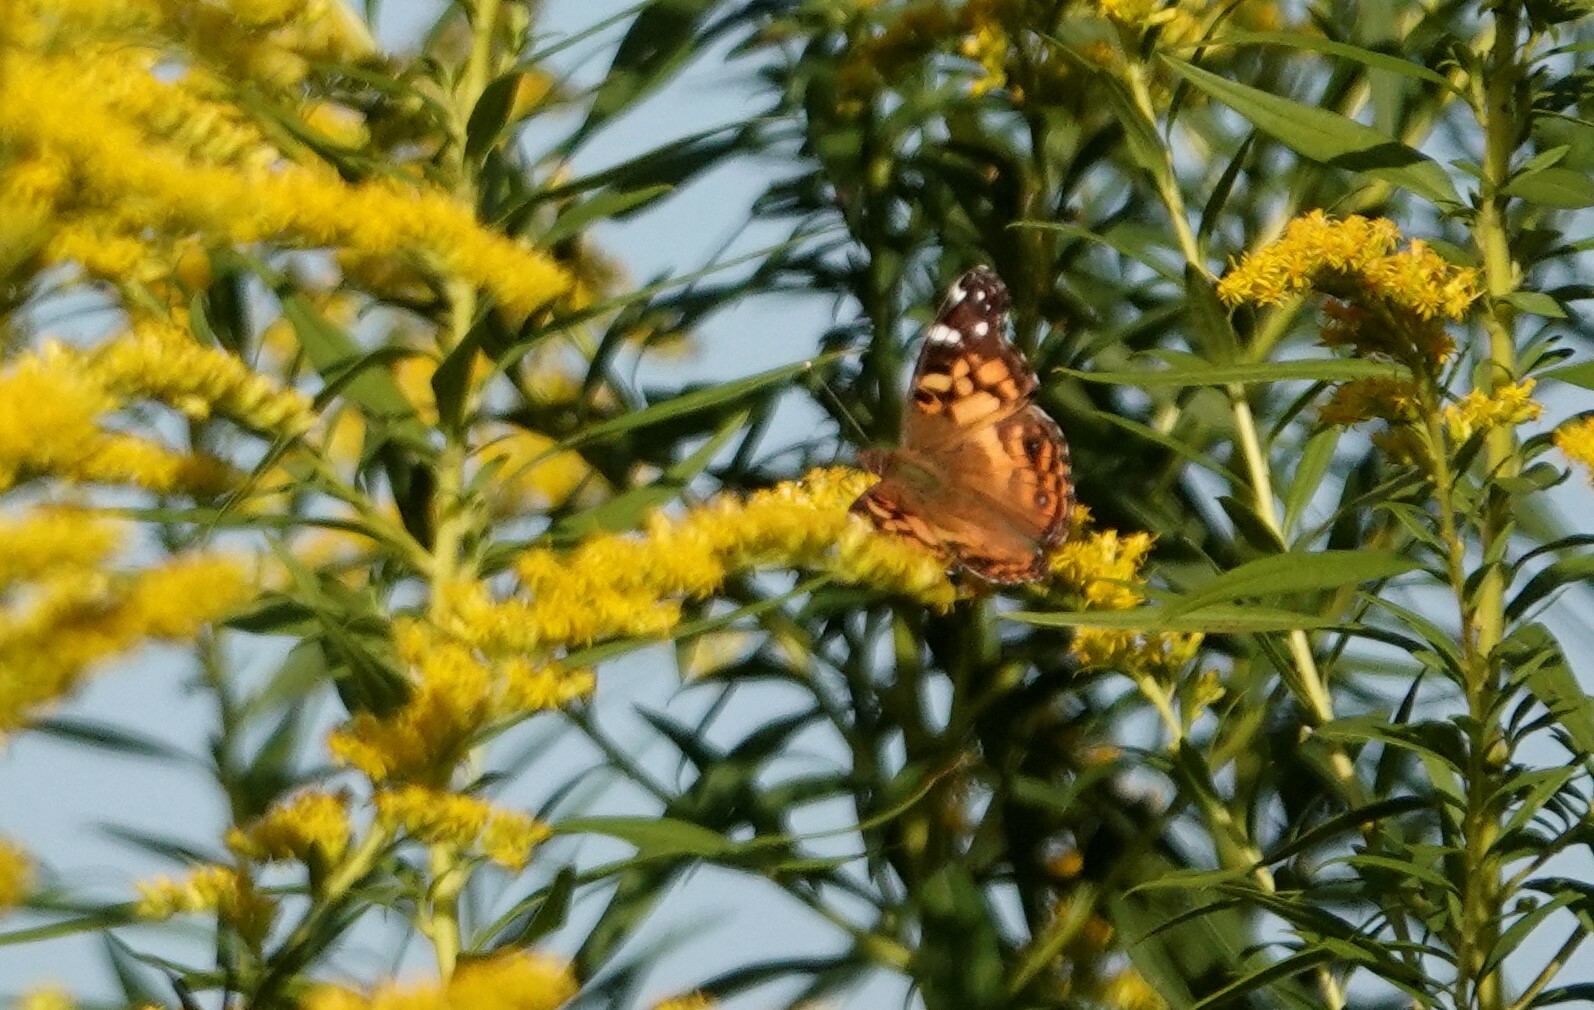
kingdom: Animalia
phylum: Arthropoda
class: Insecta
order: Lepidoptera
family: Nymphalidae
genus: Vanessa
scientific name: Vanessa virginiensis
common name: American lady
